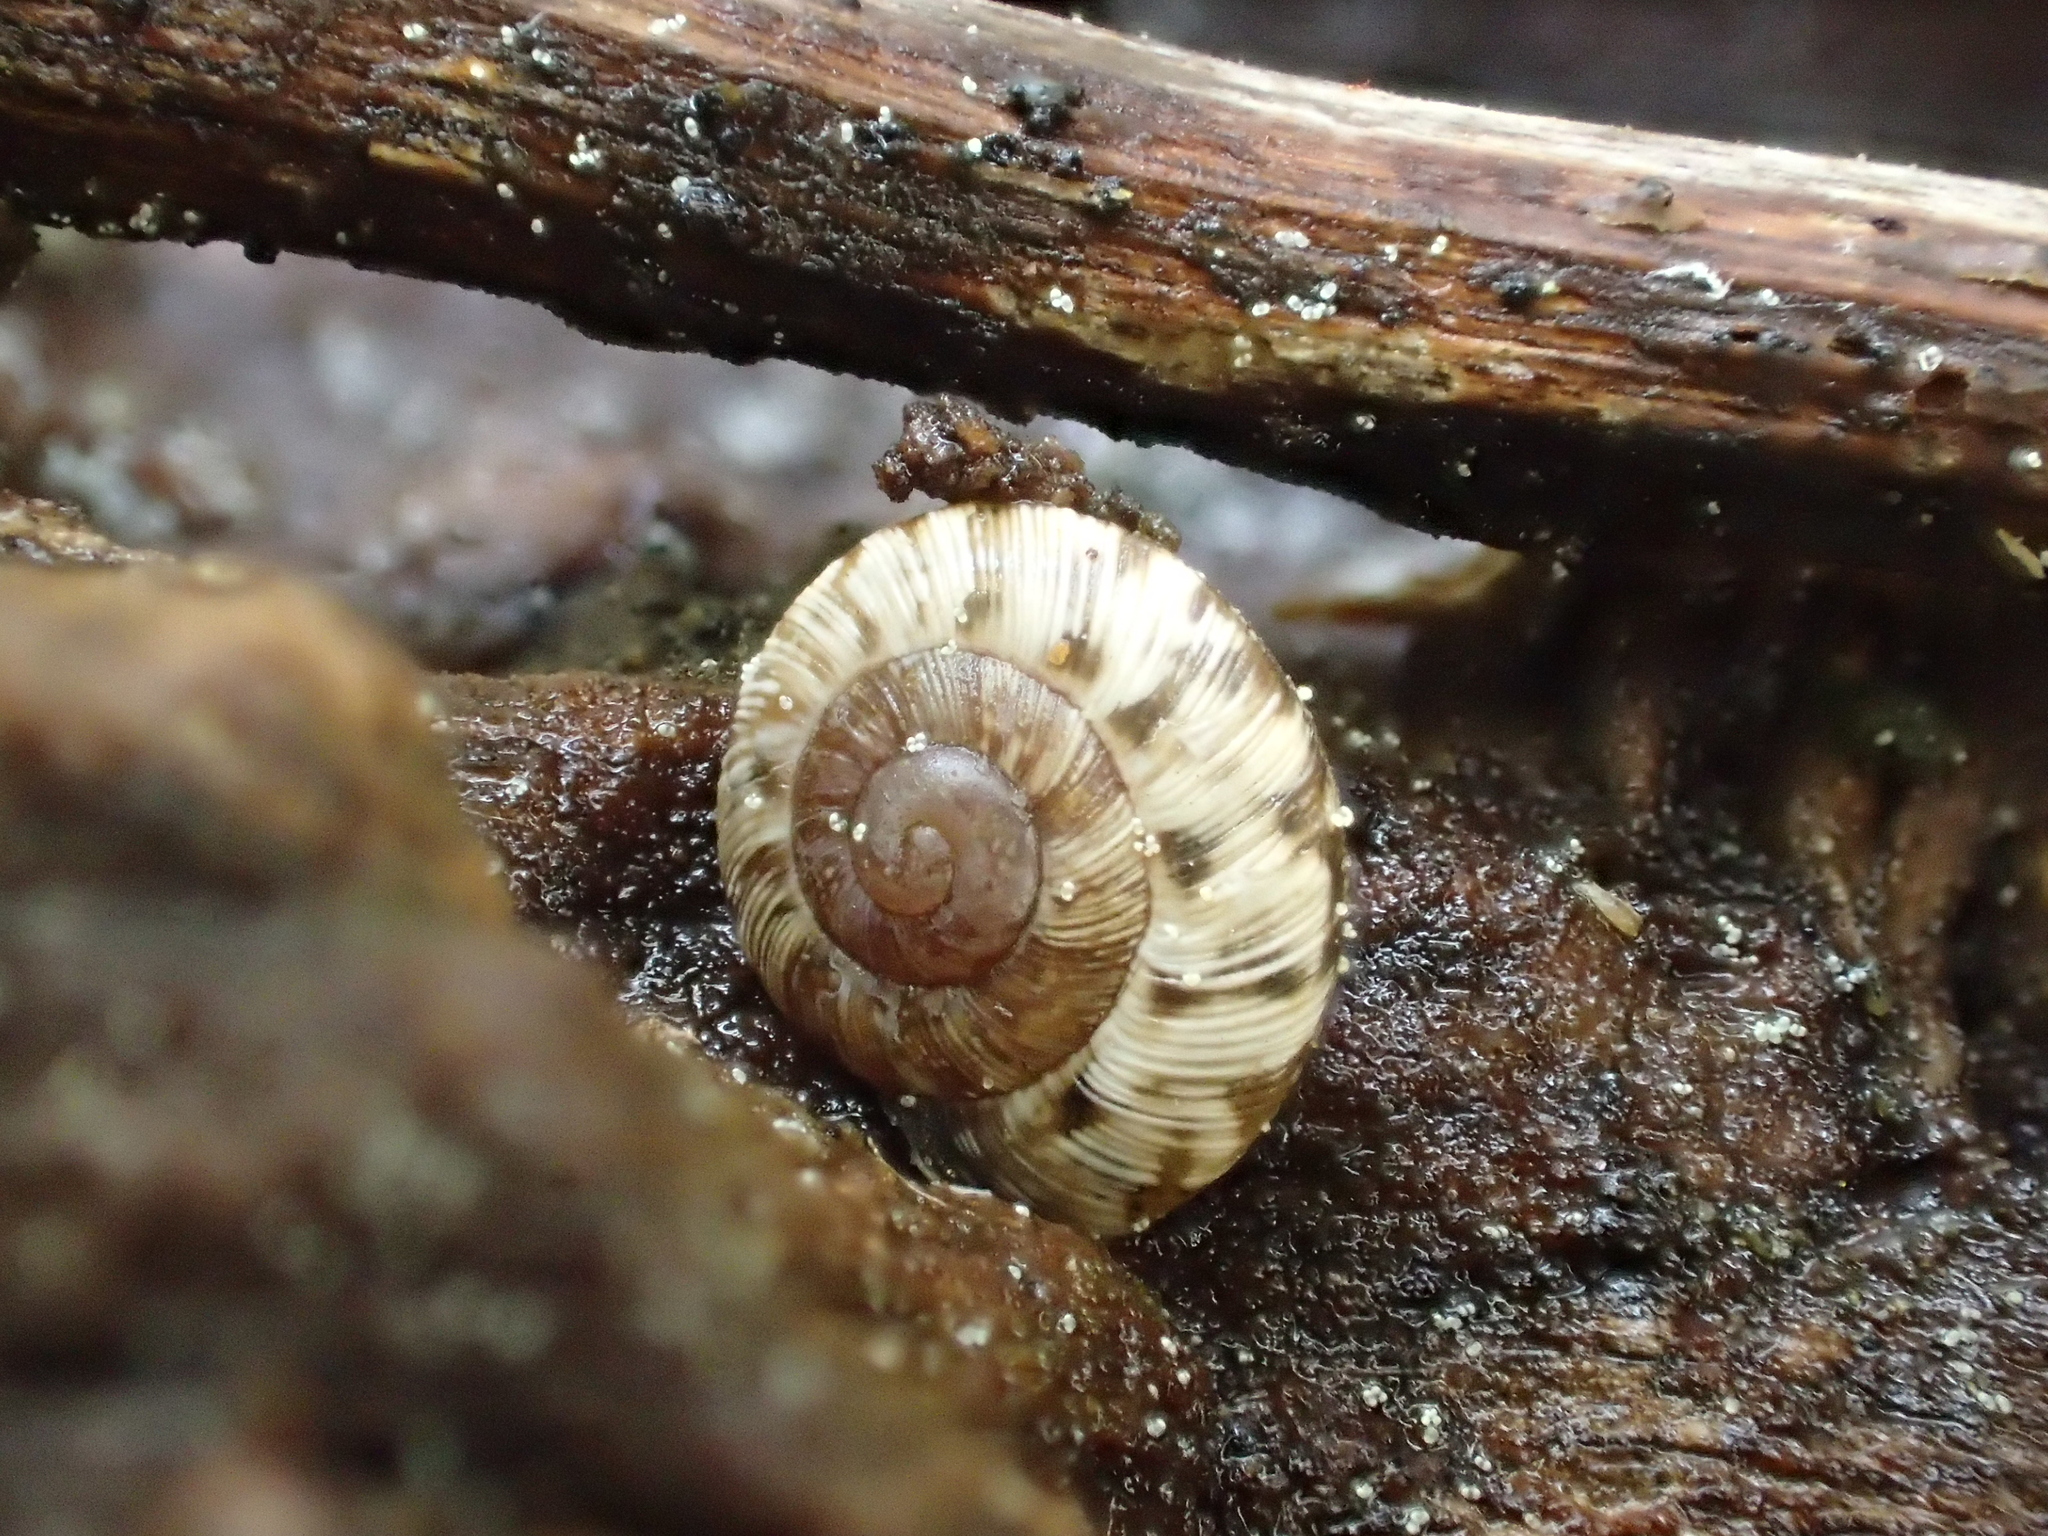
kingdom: Animalia
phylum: Mollusca
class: Gastropoda
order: Stylommatophora
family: Geomitridae
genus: Xeroplexa
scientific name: Xeroplexa intersecta
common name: Wrinkled snail
